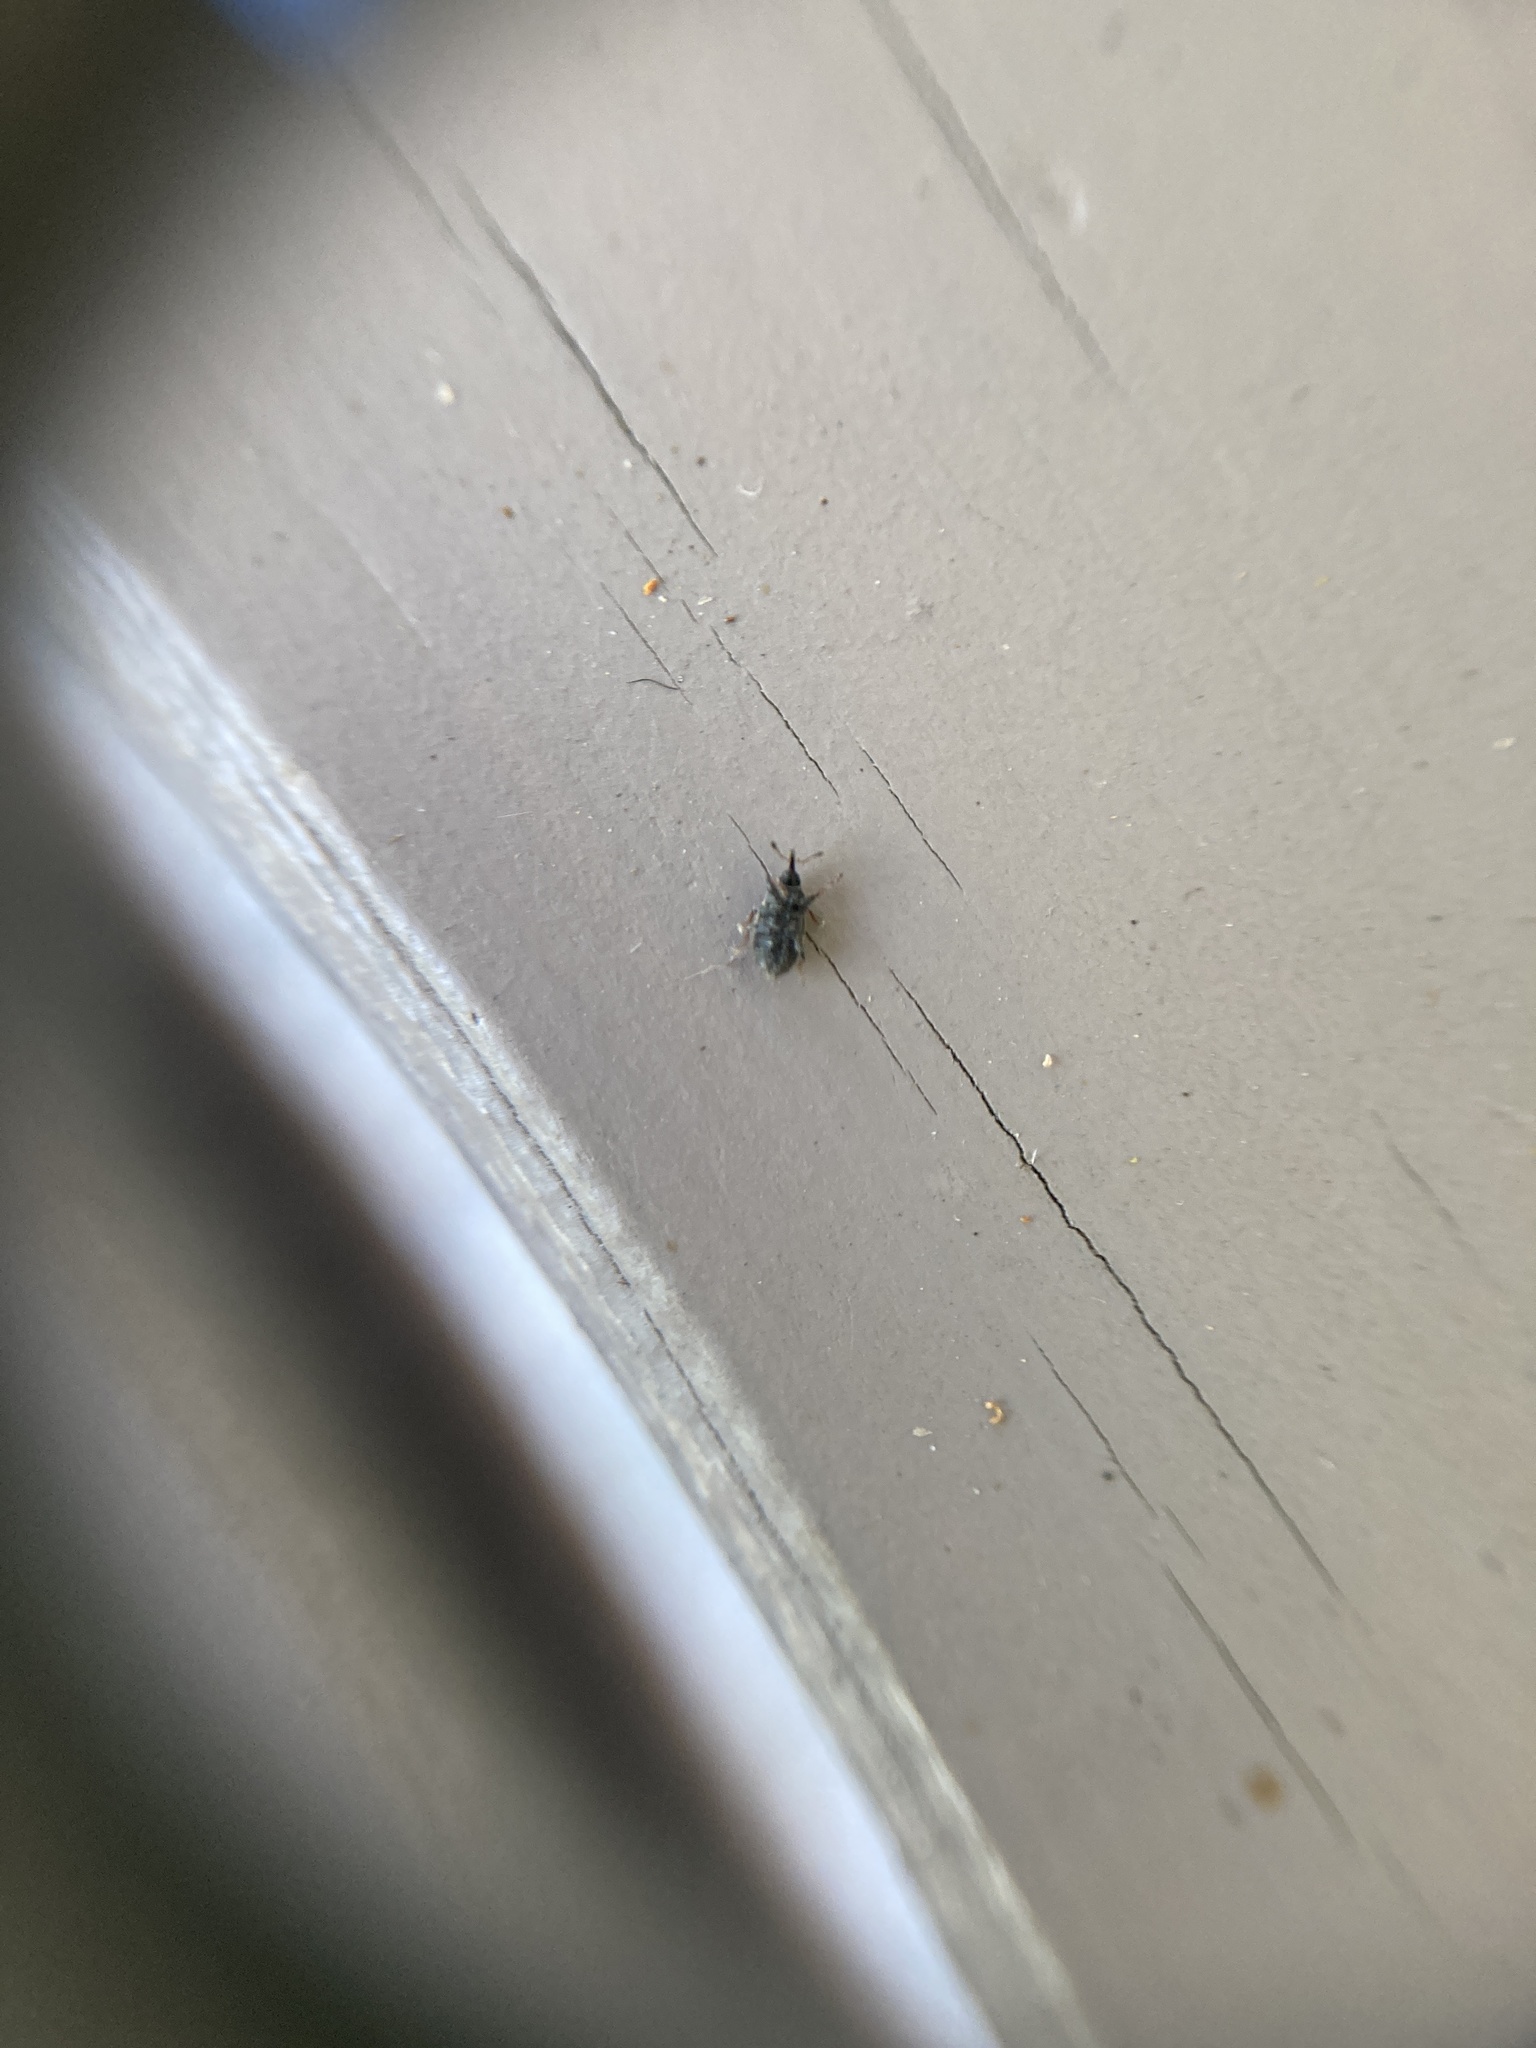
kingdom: Animalia
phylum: Arthropoda
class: Insecta
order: Coleoptera
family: Curculionidae
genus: Mecinus
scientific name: Mecinus pascuorum
